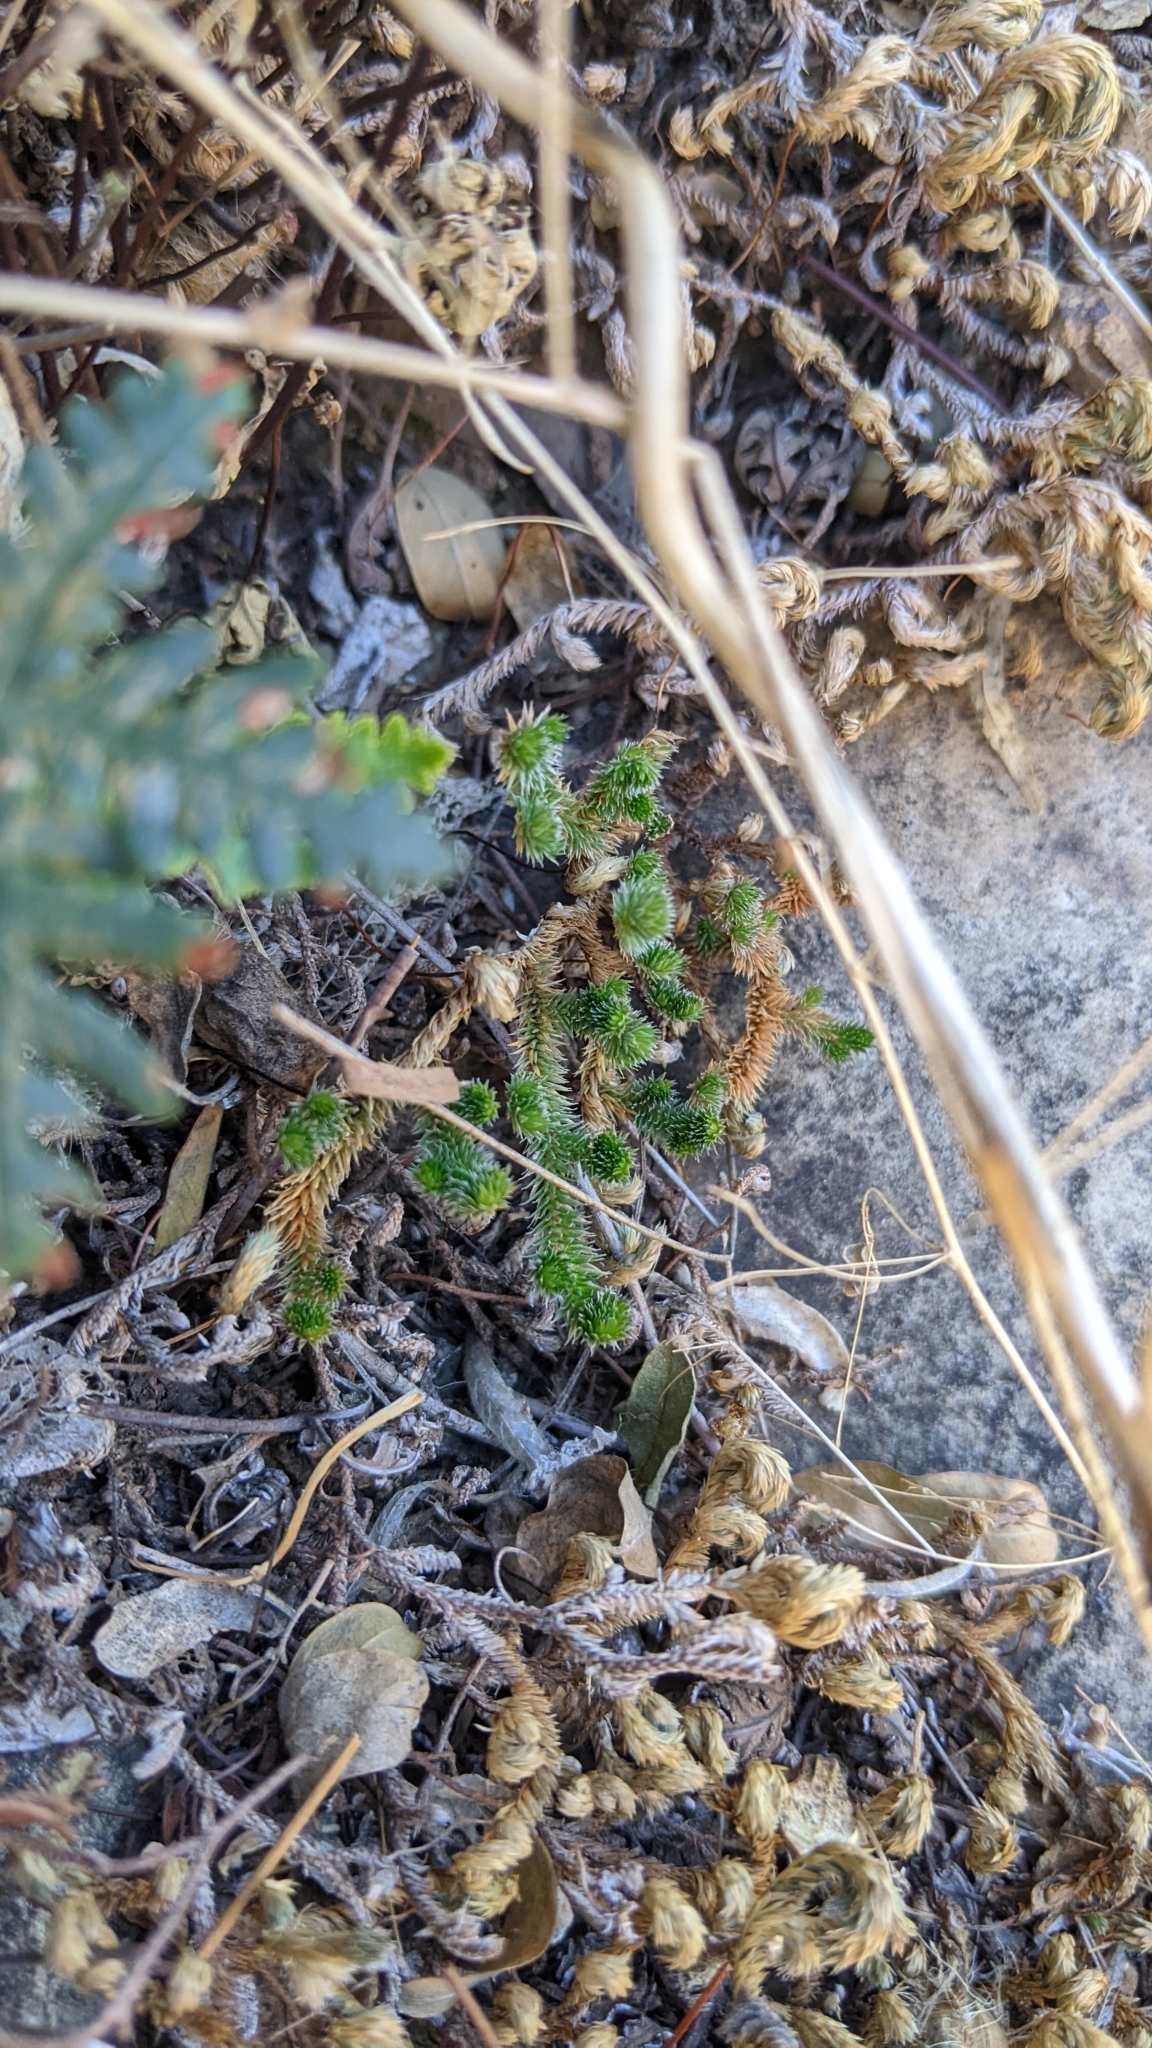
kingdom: Plantae
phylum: Tracheophyta
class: Lycopodiopsida
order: Selaginellales
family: Selaginellaceae
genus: Selaginella
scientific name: Selaginella arizonica
